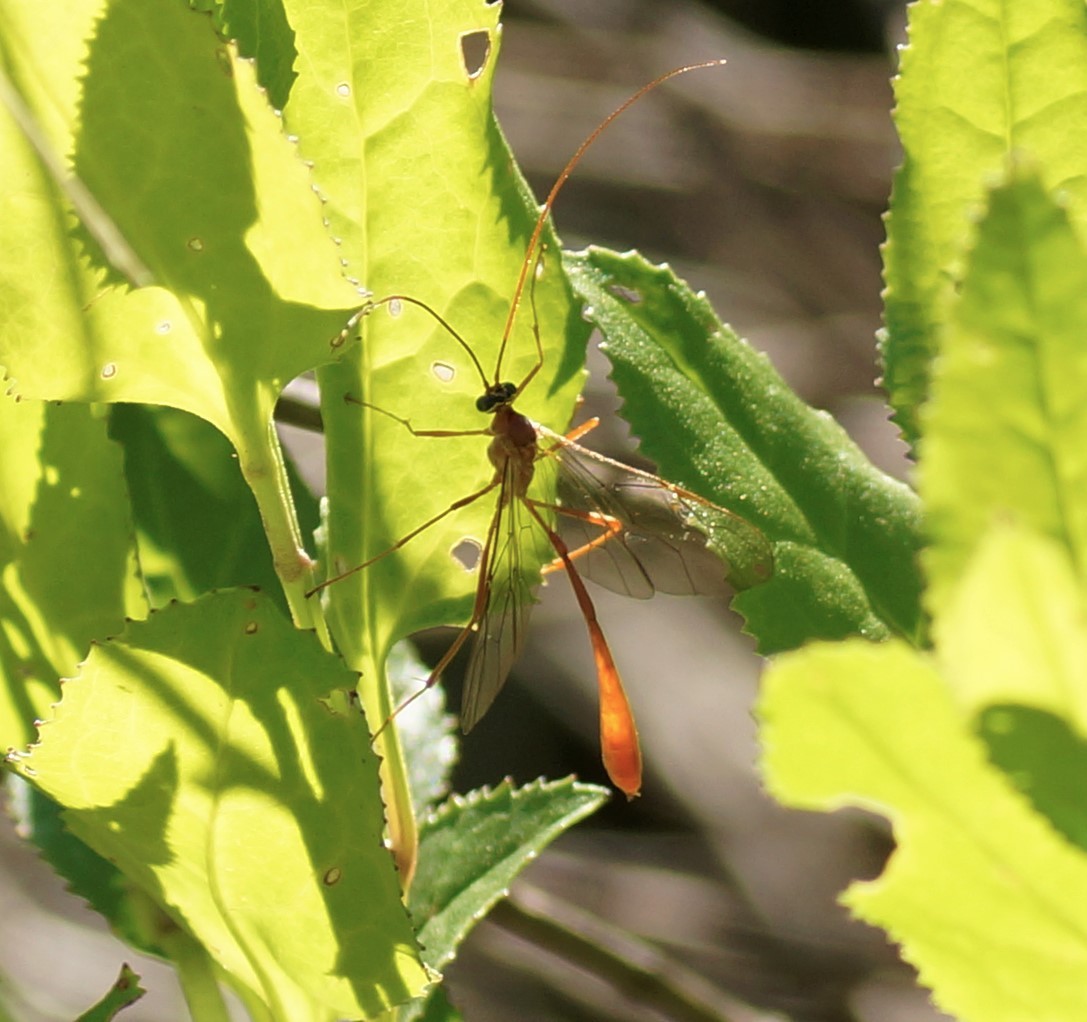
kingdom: Animalia
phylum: Arthropoda
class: Insecta
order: Hymenoptera
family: Ichneumonidae
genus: Enicospilus
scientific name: Enicospilus
